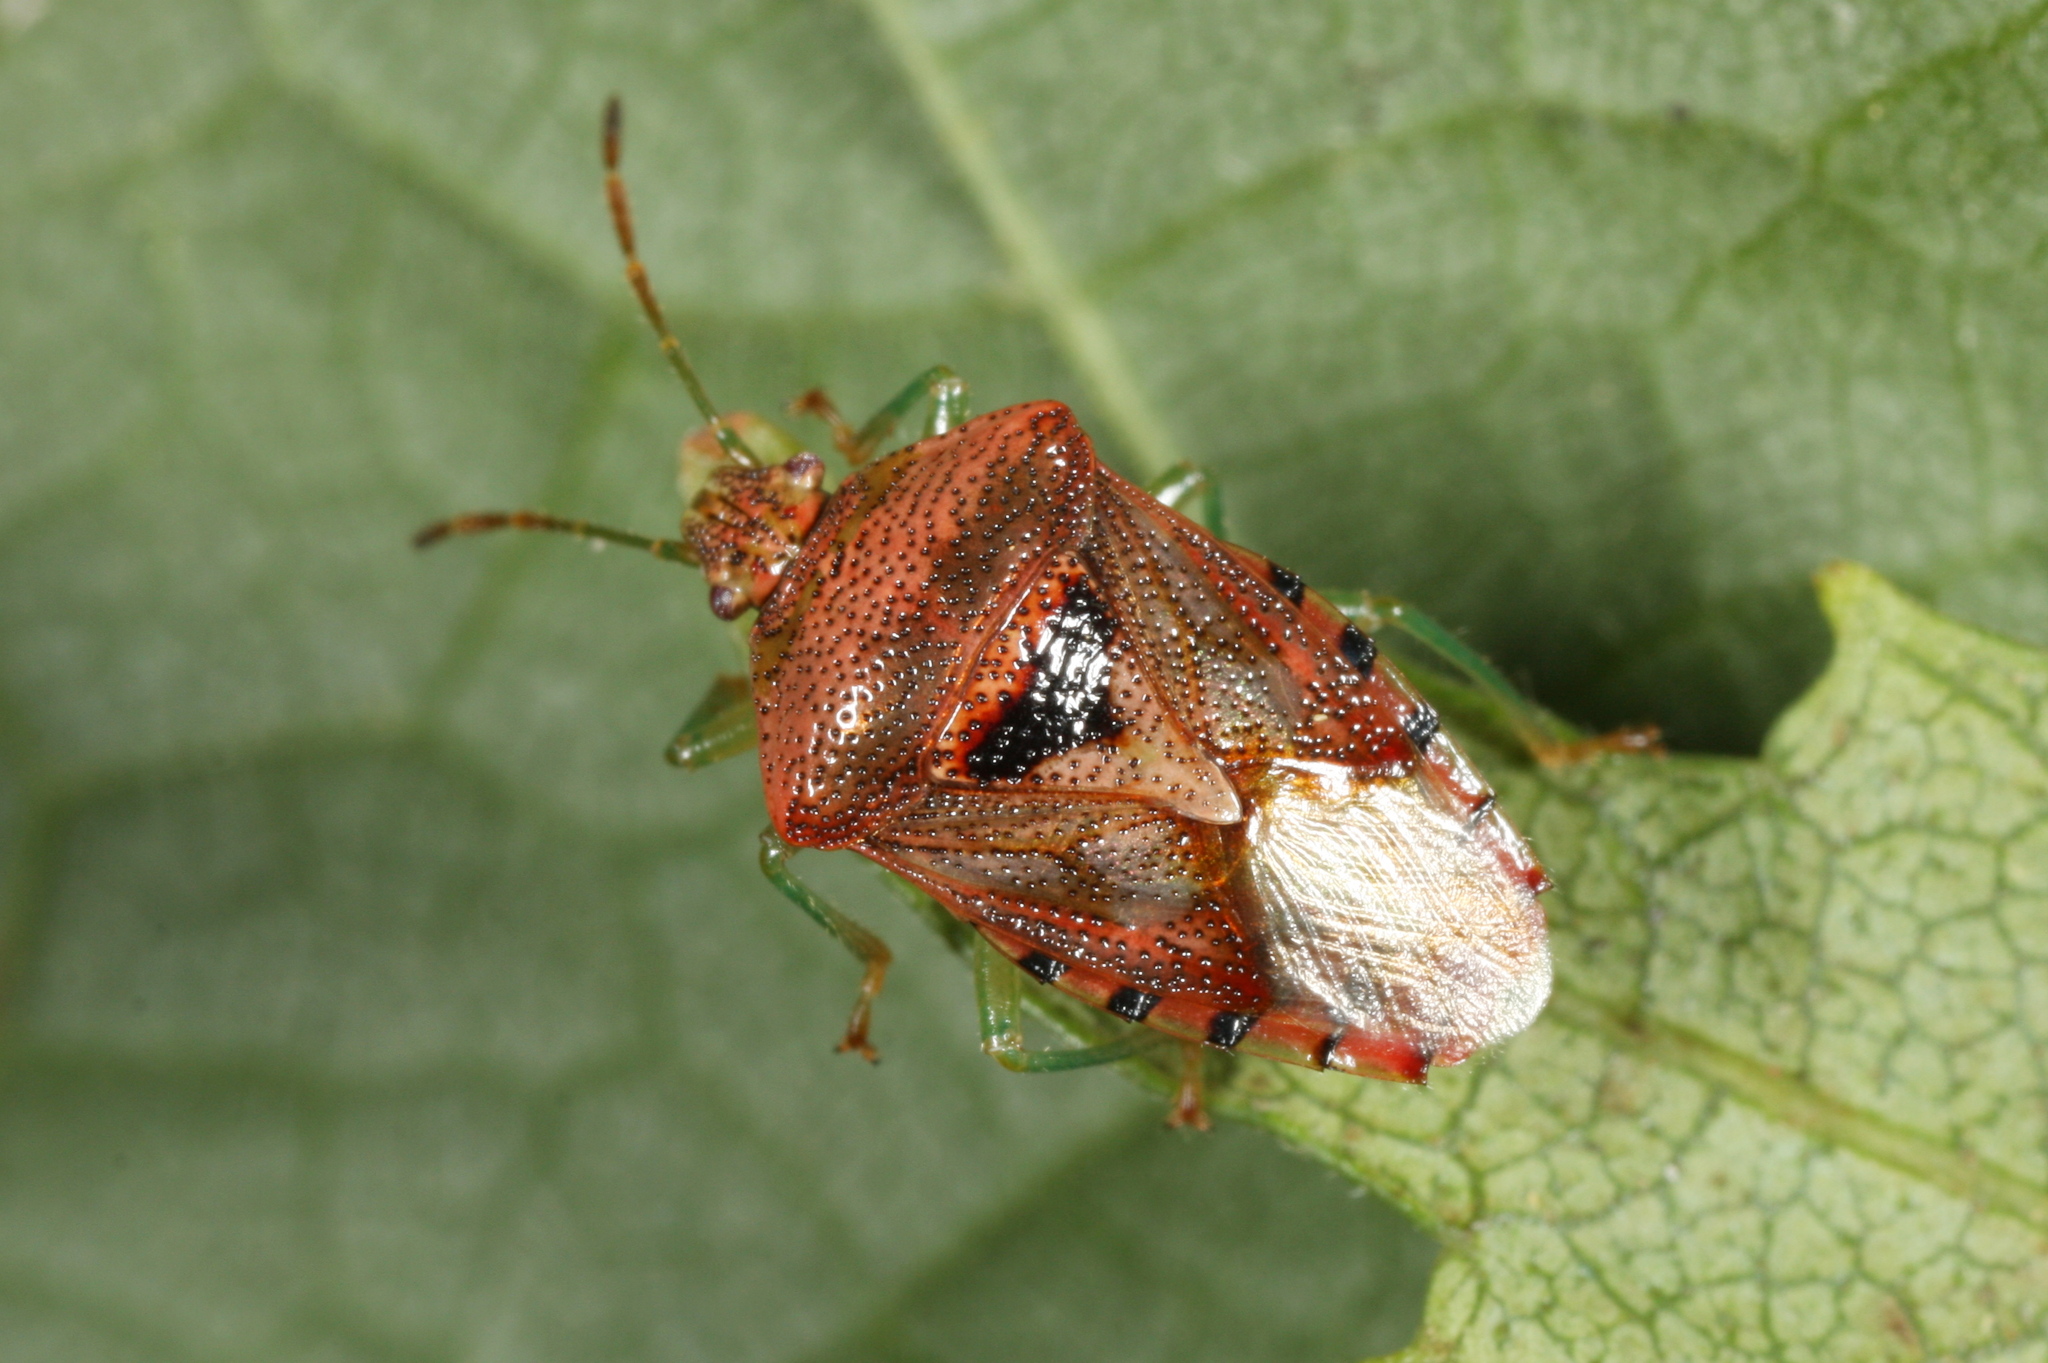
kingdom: Animalia
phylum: Arthropoda
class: Insecta
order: Hemiptera
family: Acanthosomatidae
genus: Elasmucha
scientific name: Elasmucha grisea
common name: Parent bug
